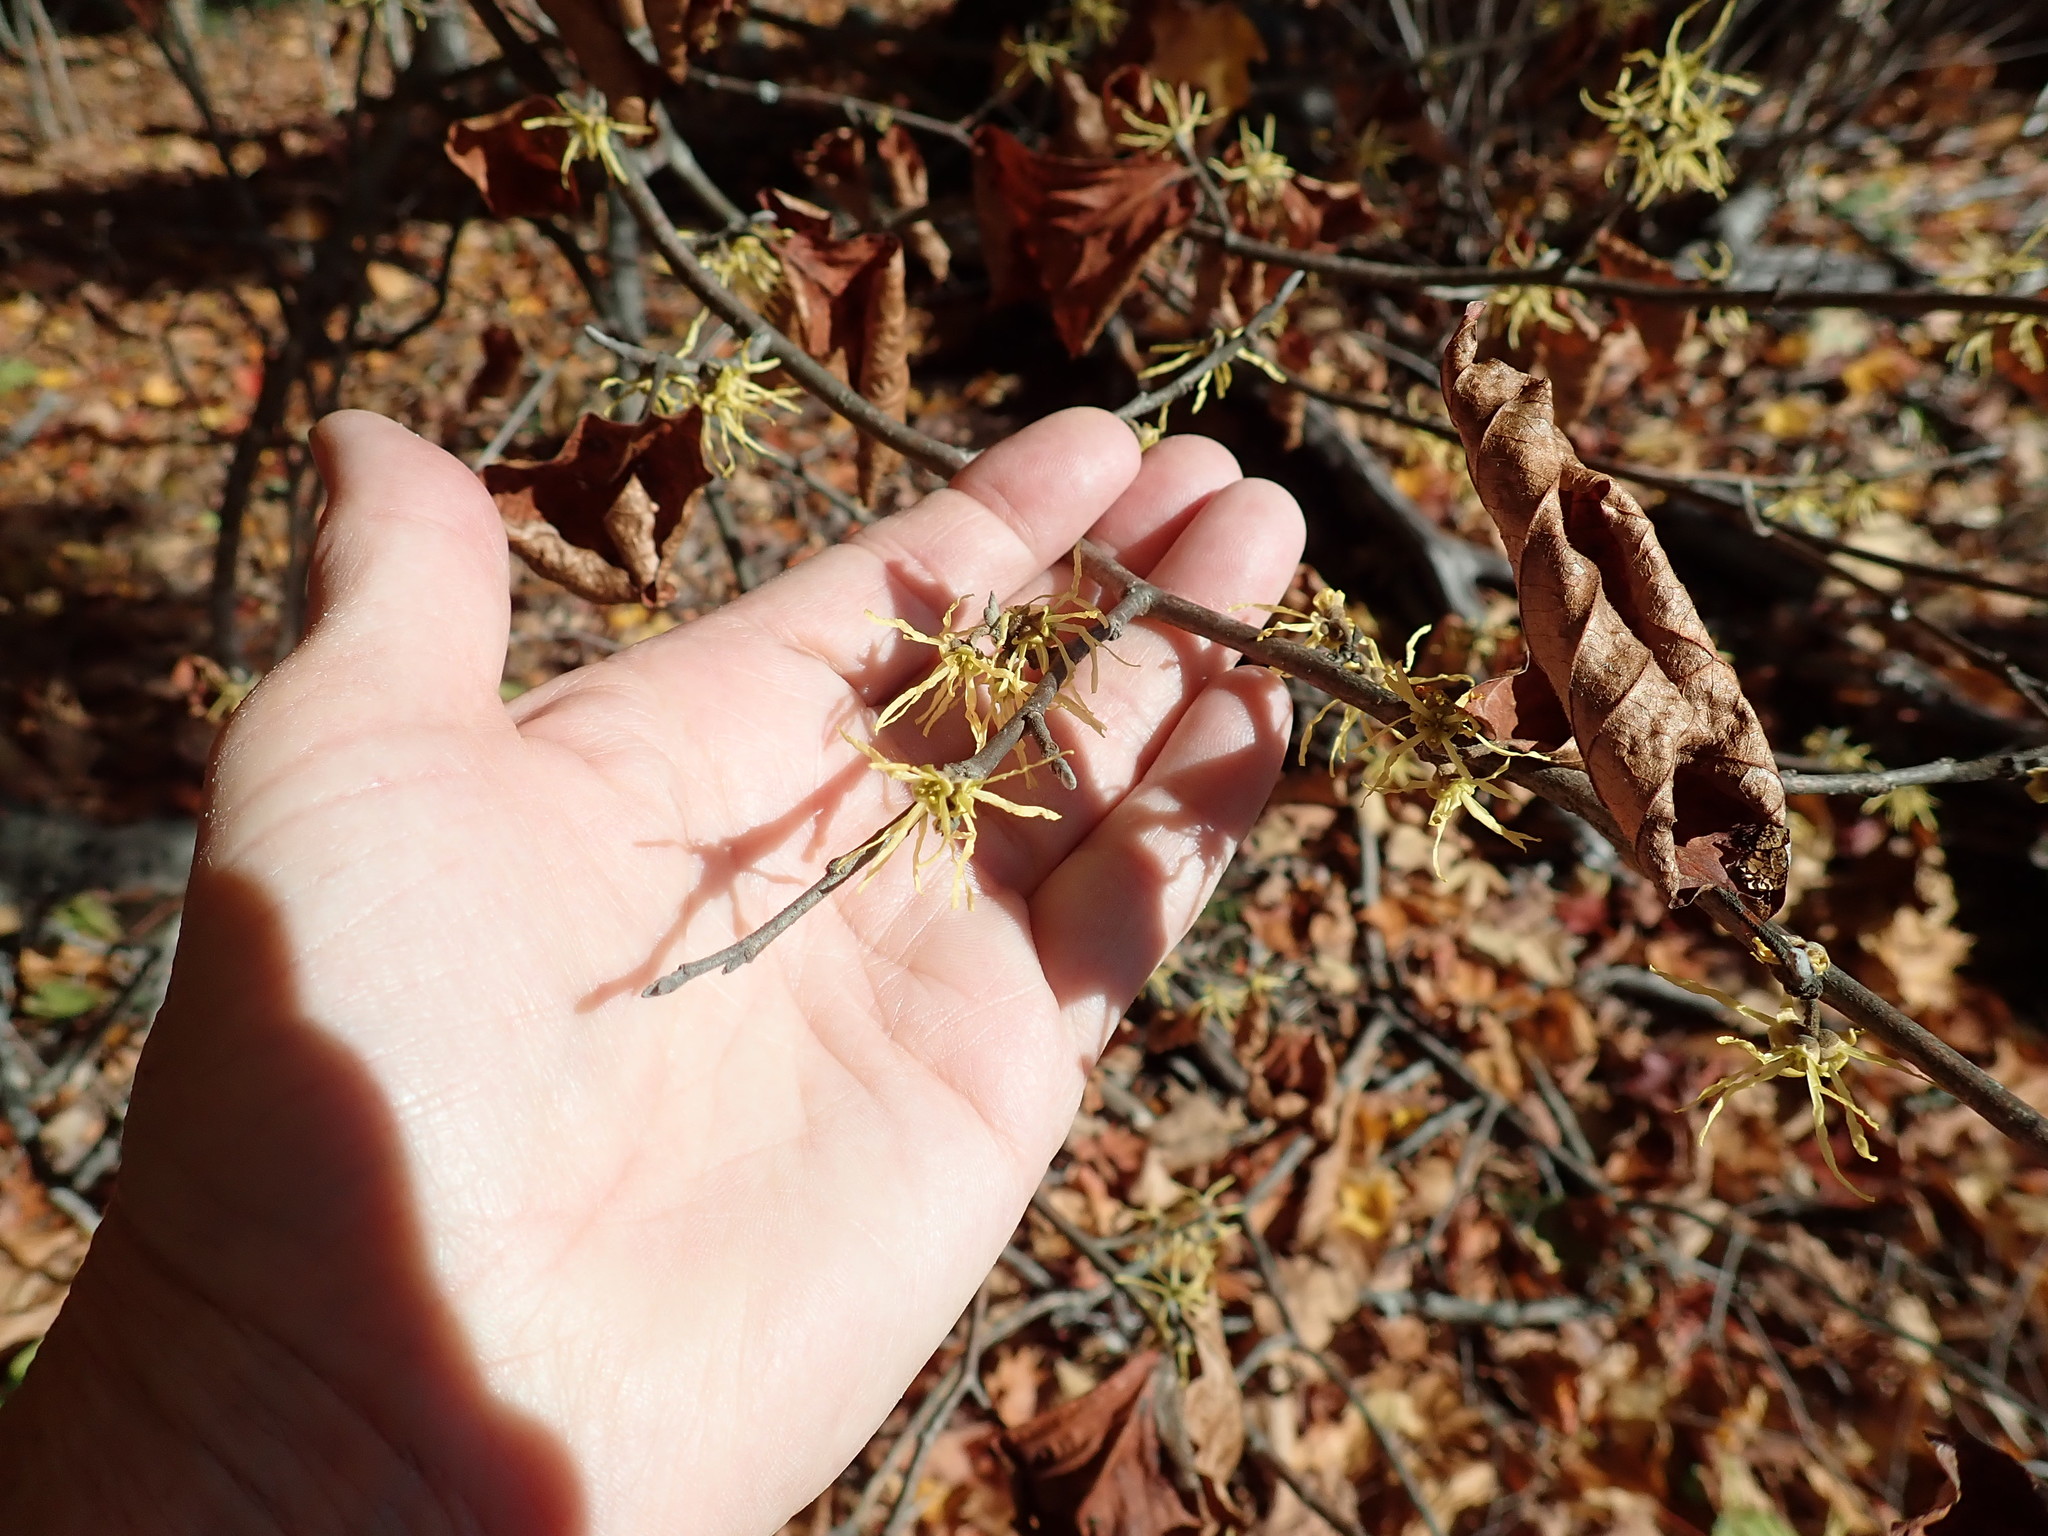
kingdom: Plantae
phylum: Tracheophyta
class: Magnoliopsida
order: Saxifragales
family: Hamamelidaceae
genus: Hamamelis
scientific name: Hamamelis virginiana
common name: Witch-hazel
